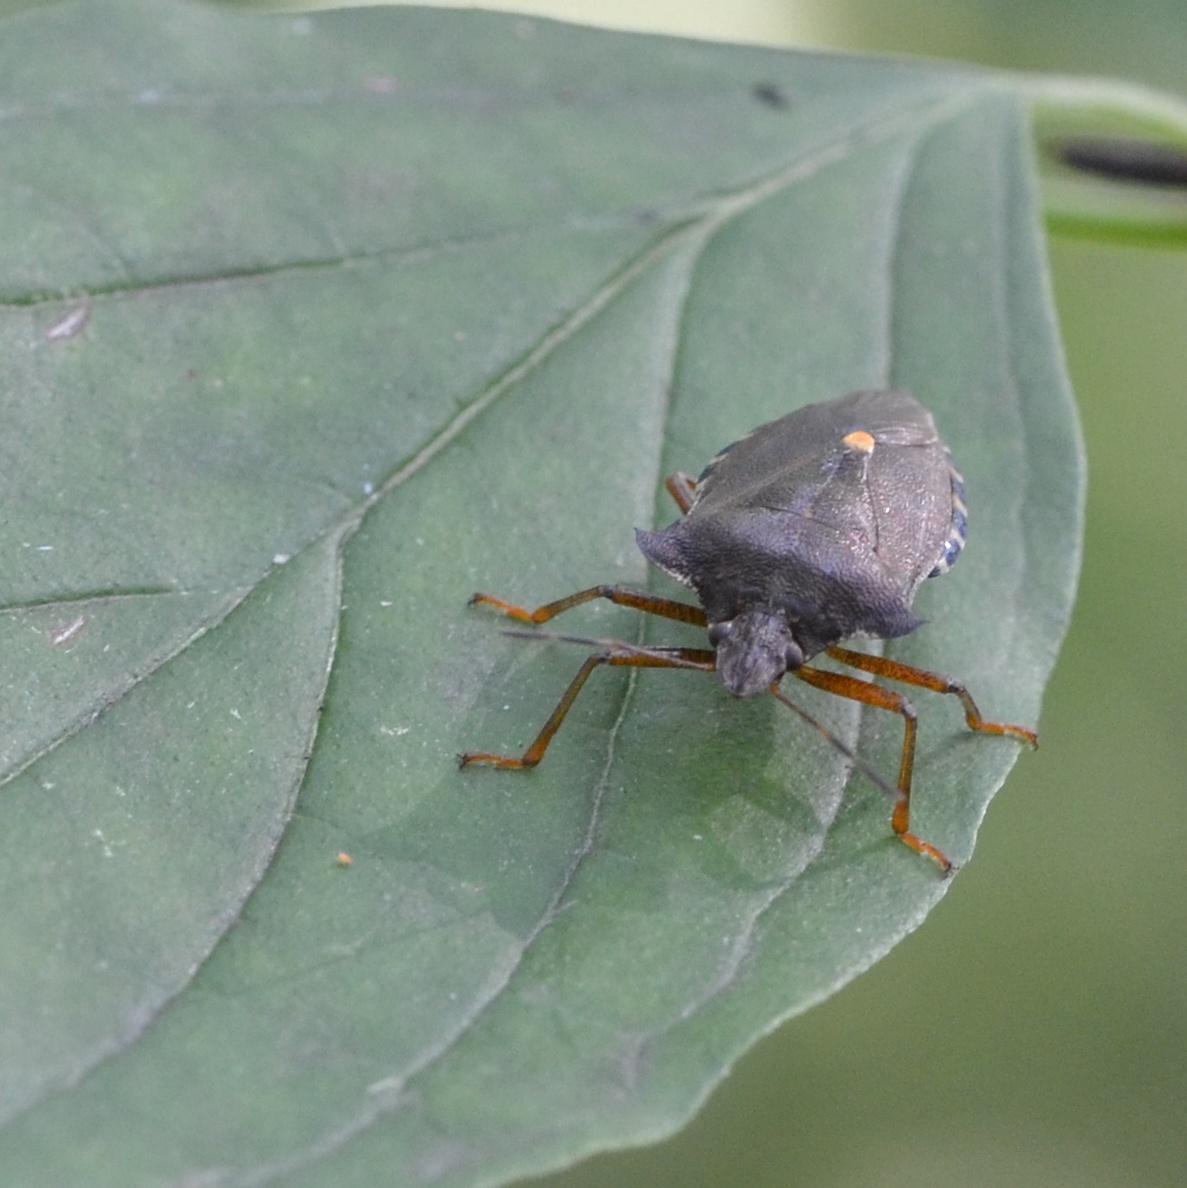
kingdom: Animalia
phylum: Arthropoda
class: Insecta
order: Hemiptera
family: Pentatomidae
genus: Pentatoma
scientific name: Pentatoma rufipes
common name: Forest bug
